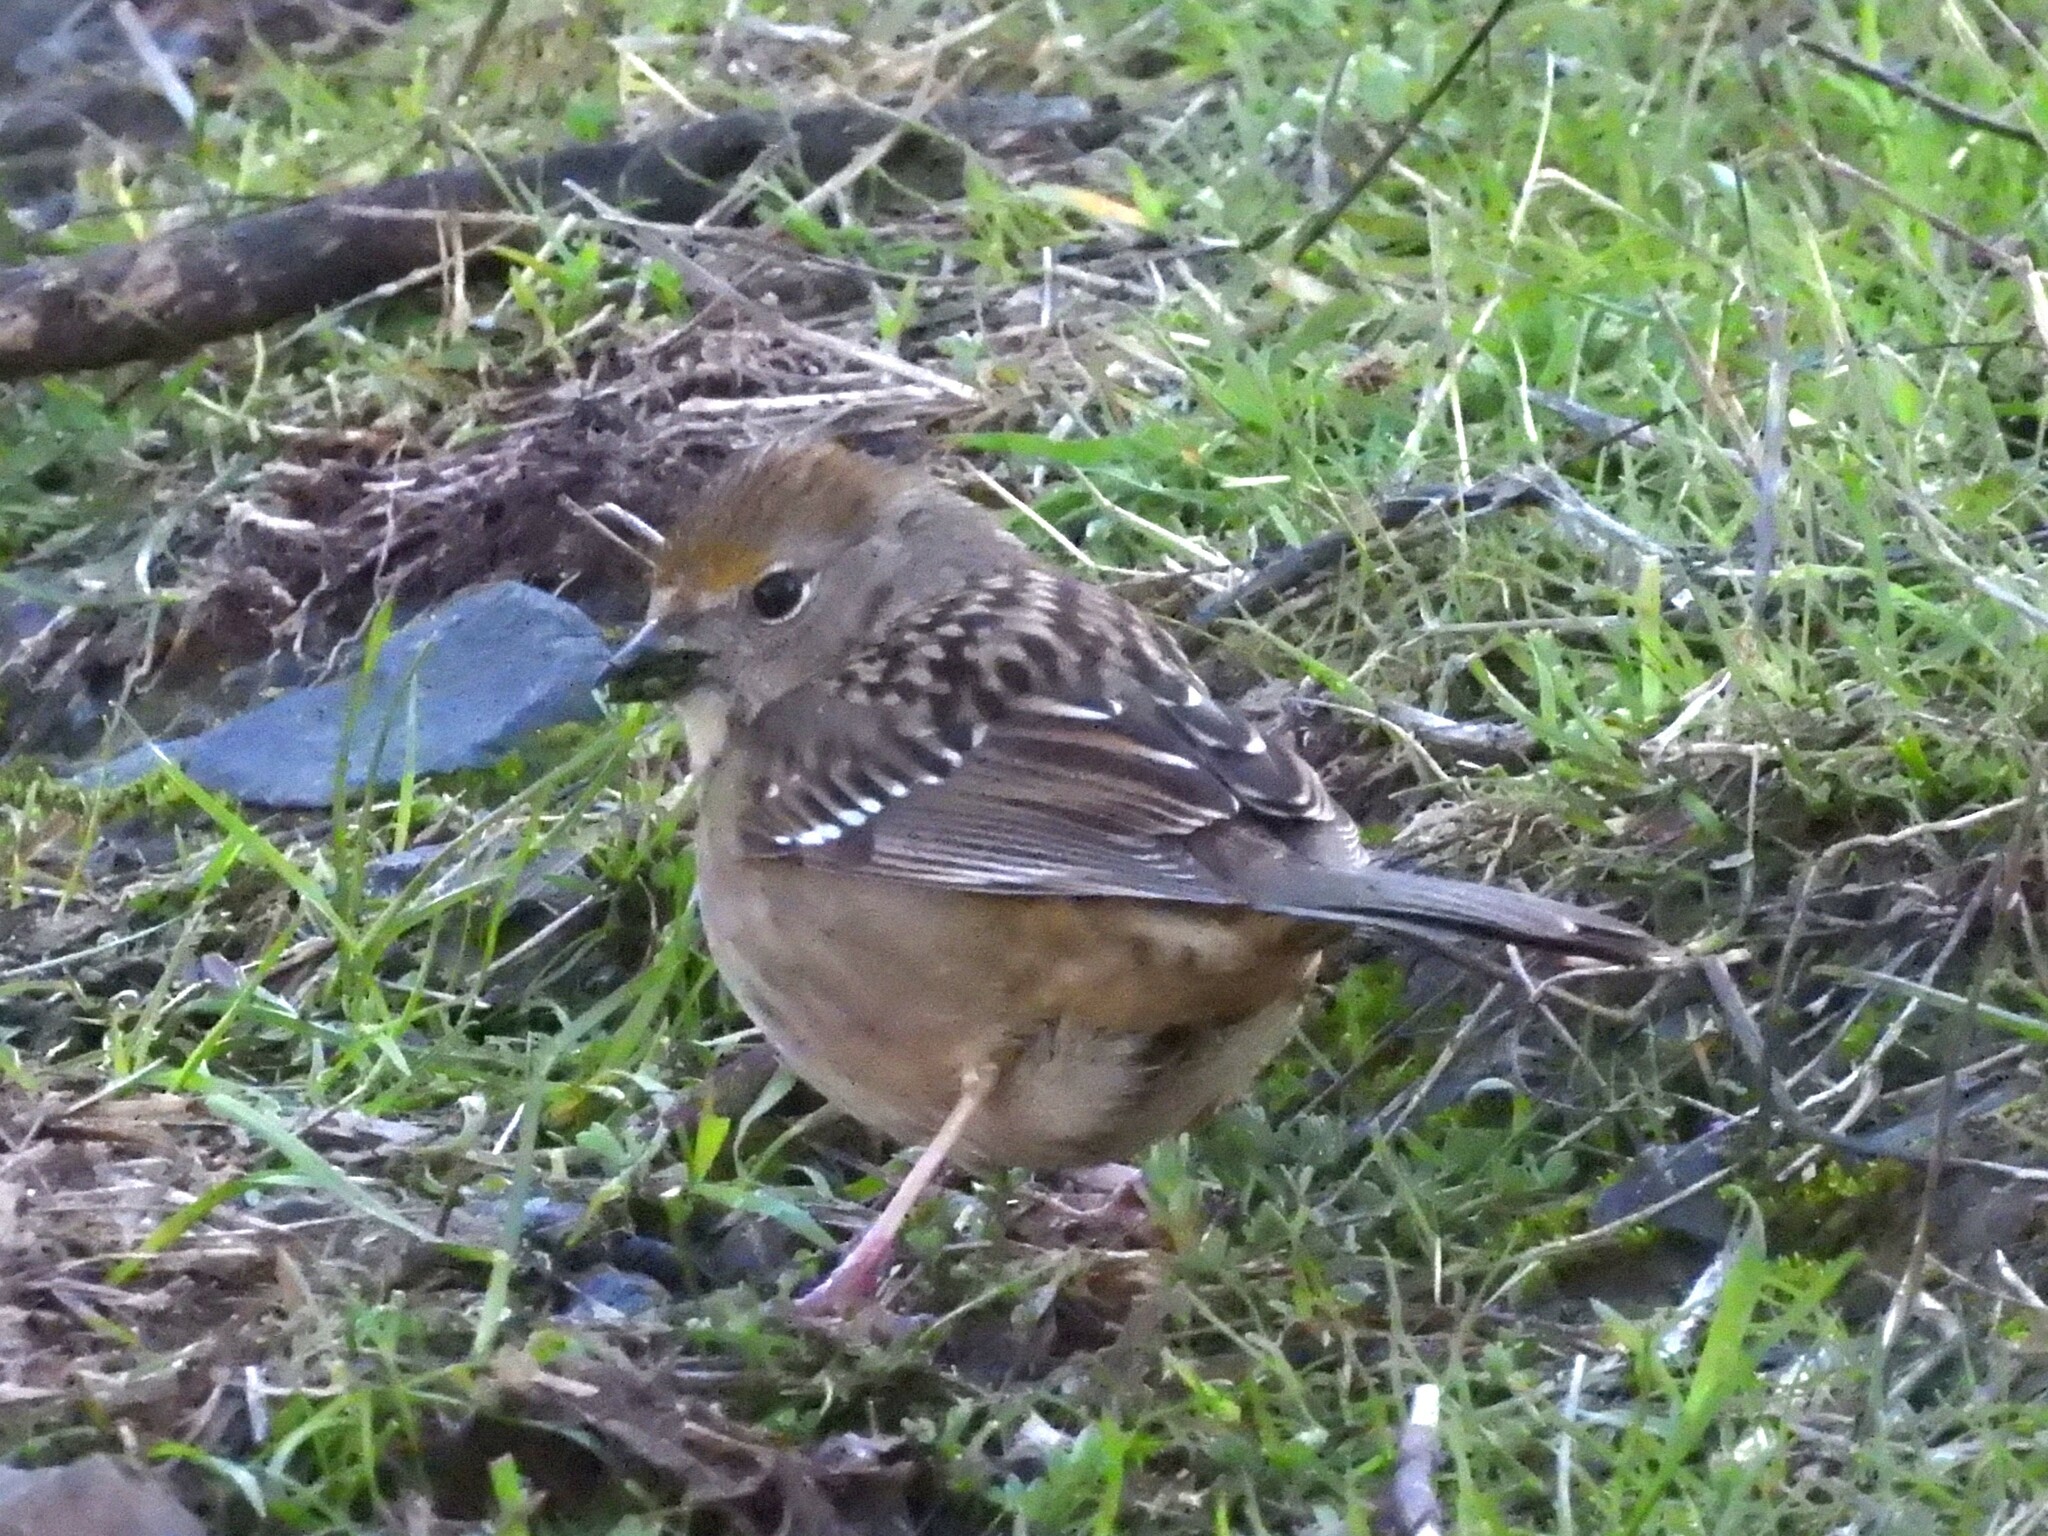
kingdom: Animalia
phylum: Chordata
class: Aves
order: Passeriformes
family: Passerellidae
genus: Zonotrichia
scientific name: Zonotrichia atricapilla
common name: Golden-crowned sparrow
